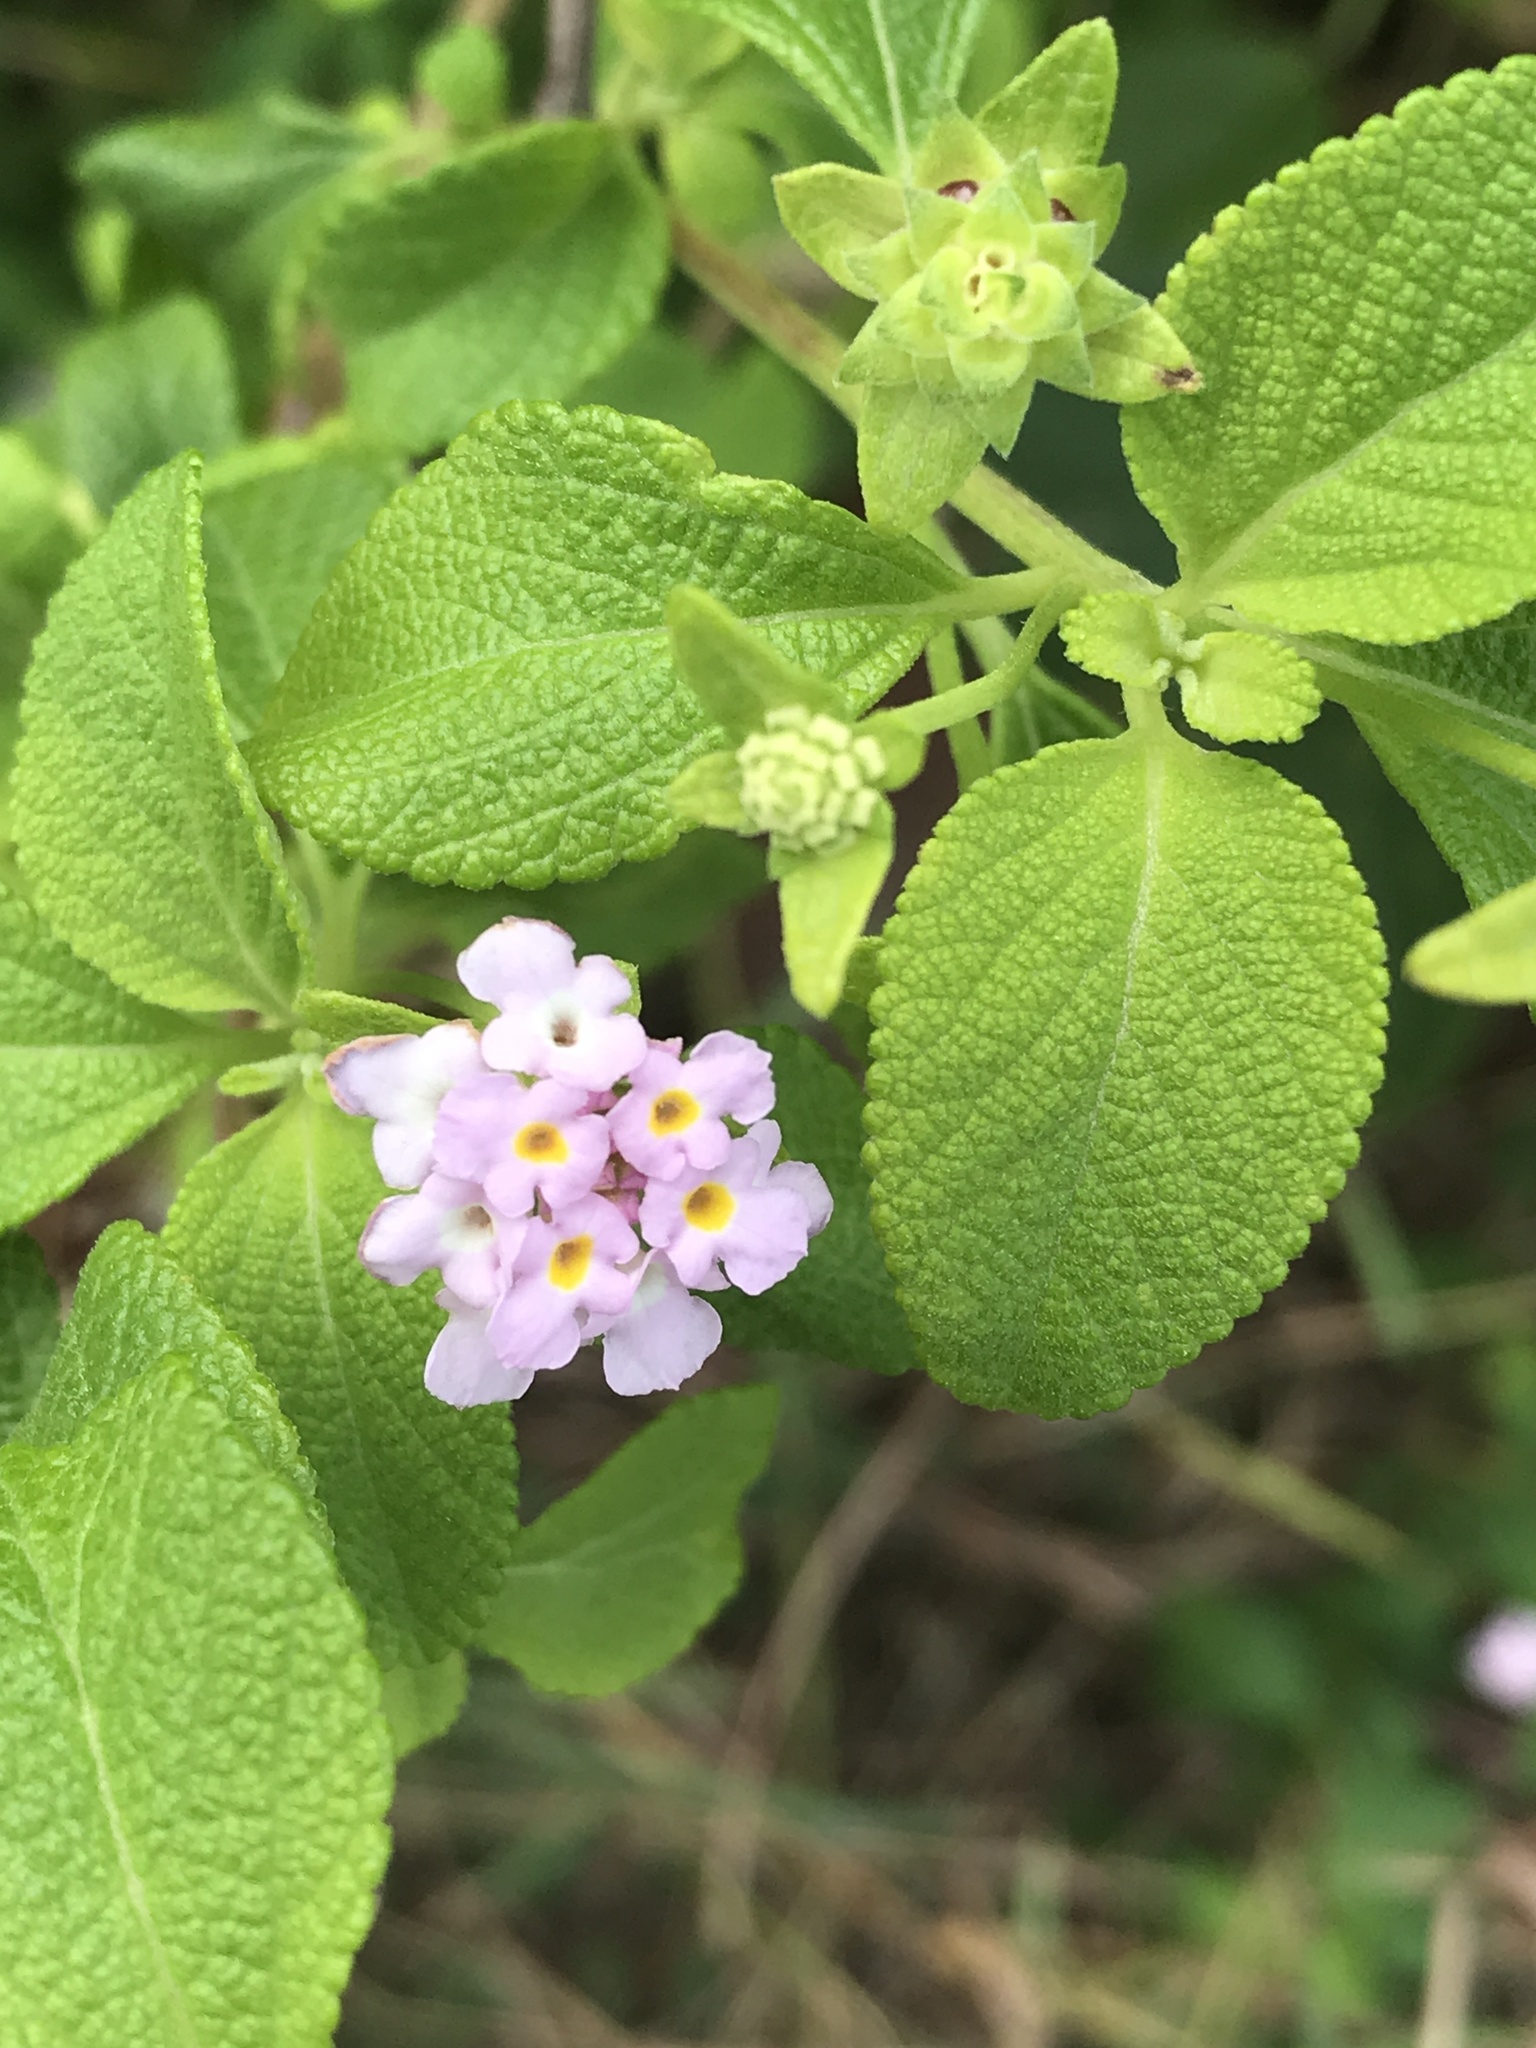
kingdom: Plantae
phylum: Tracheophyta
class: Magnoliopsida
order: Lamiales
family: Verbenaceae
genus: Lantana
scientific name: Lantana involucrata
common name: Black sage
